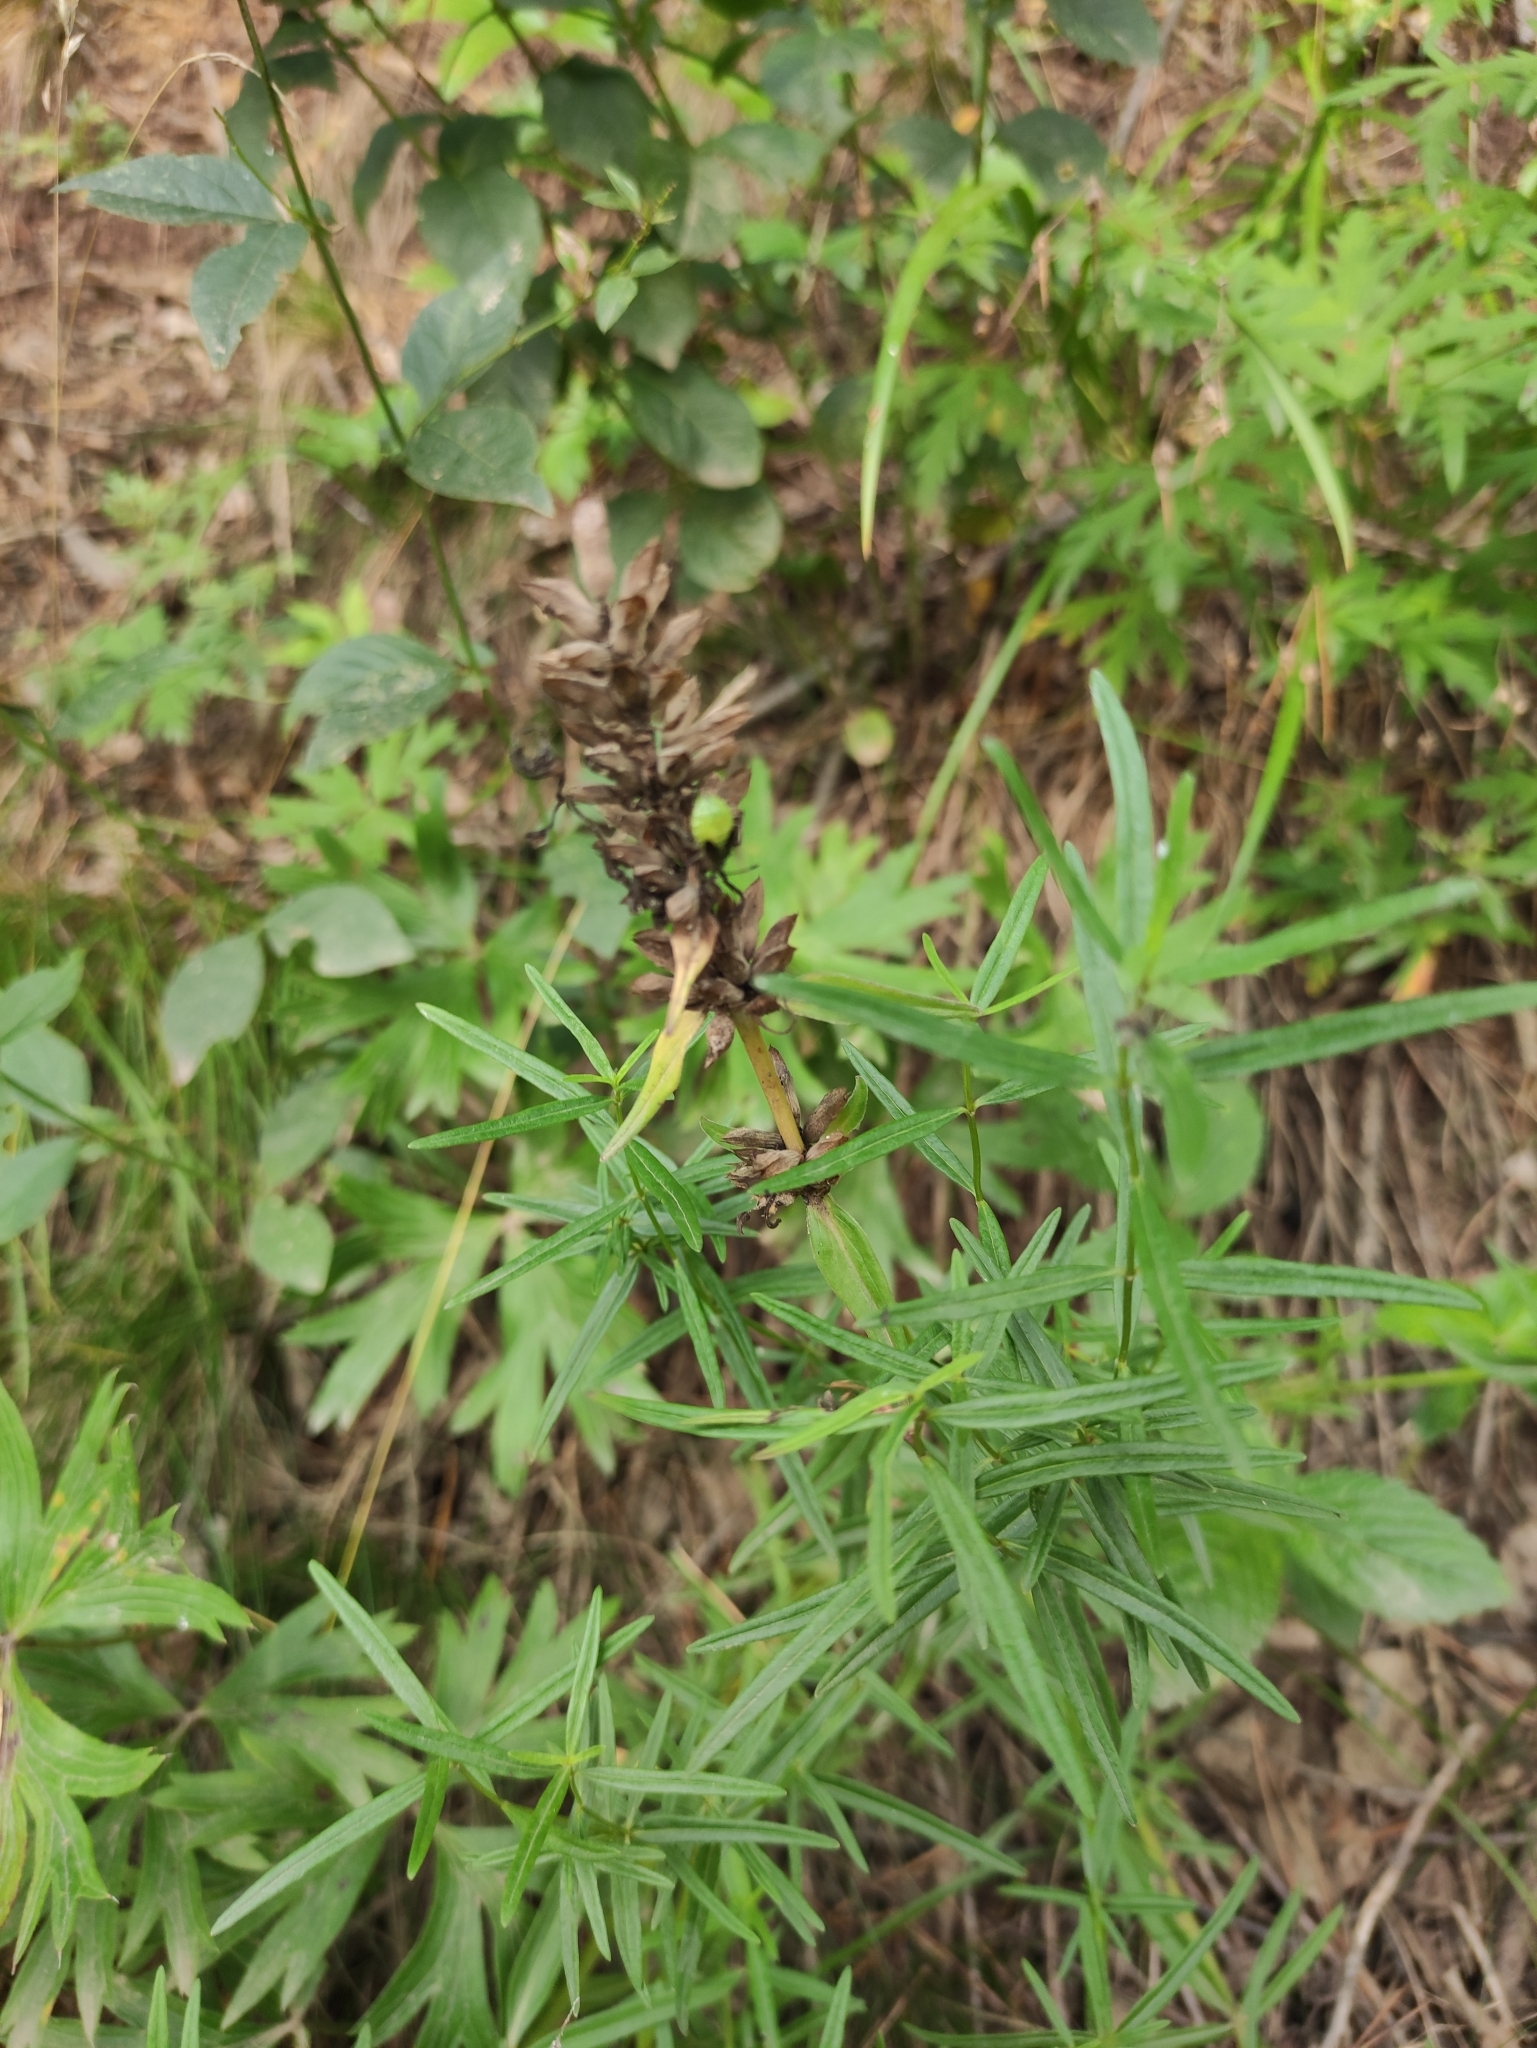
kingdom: Plantae
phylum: Tracheophyta
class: Magnoliopsida
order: Lamiales
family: Lamiaceae
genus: Dracocephalum
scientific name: Dracocephalum ruyschiana
